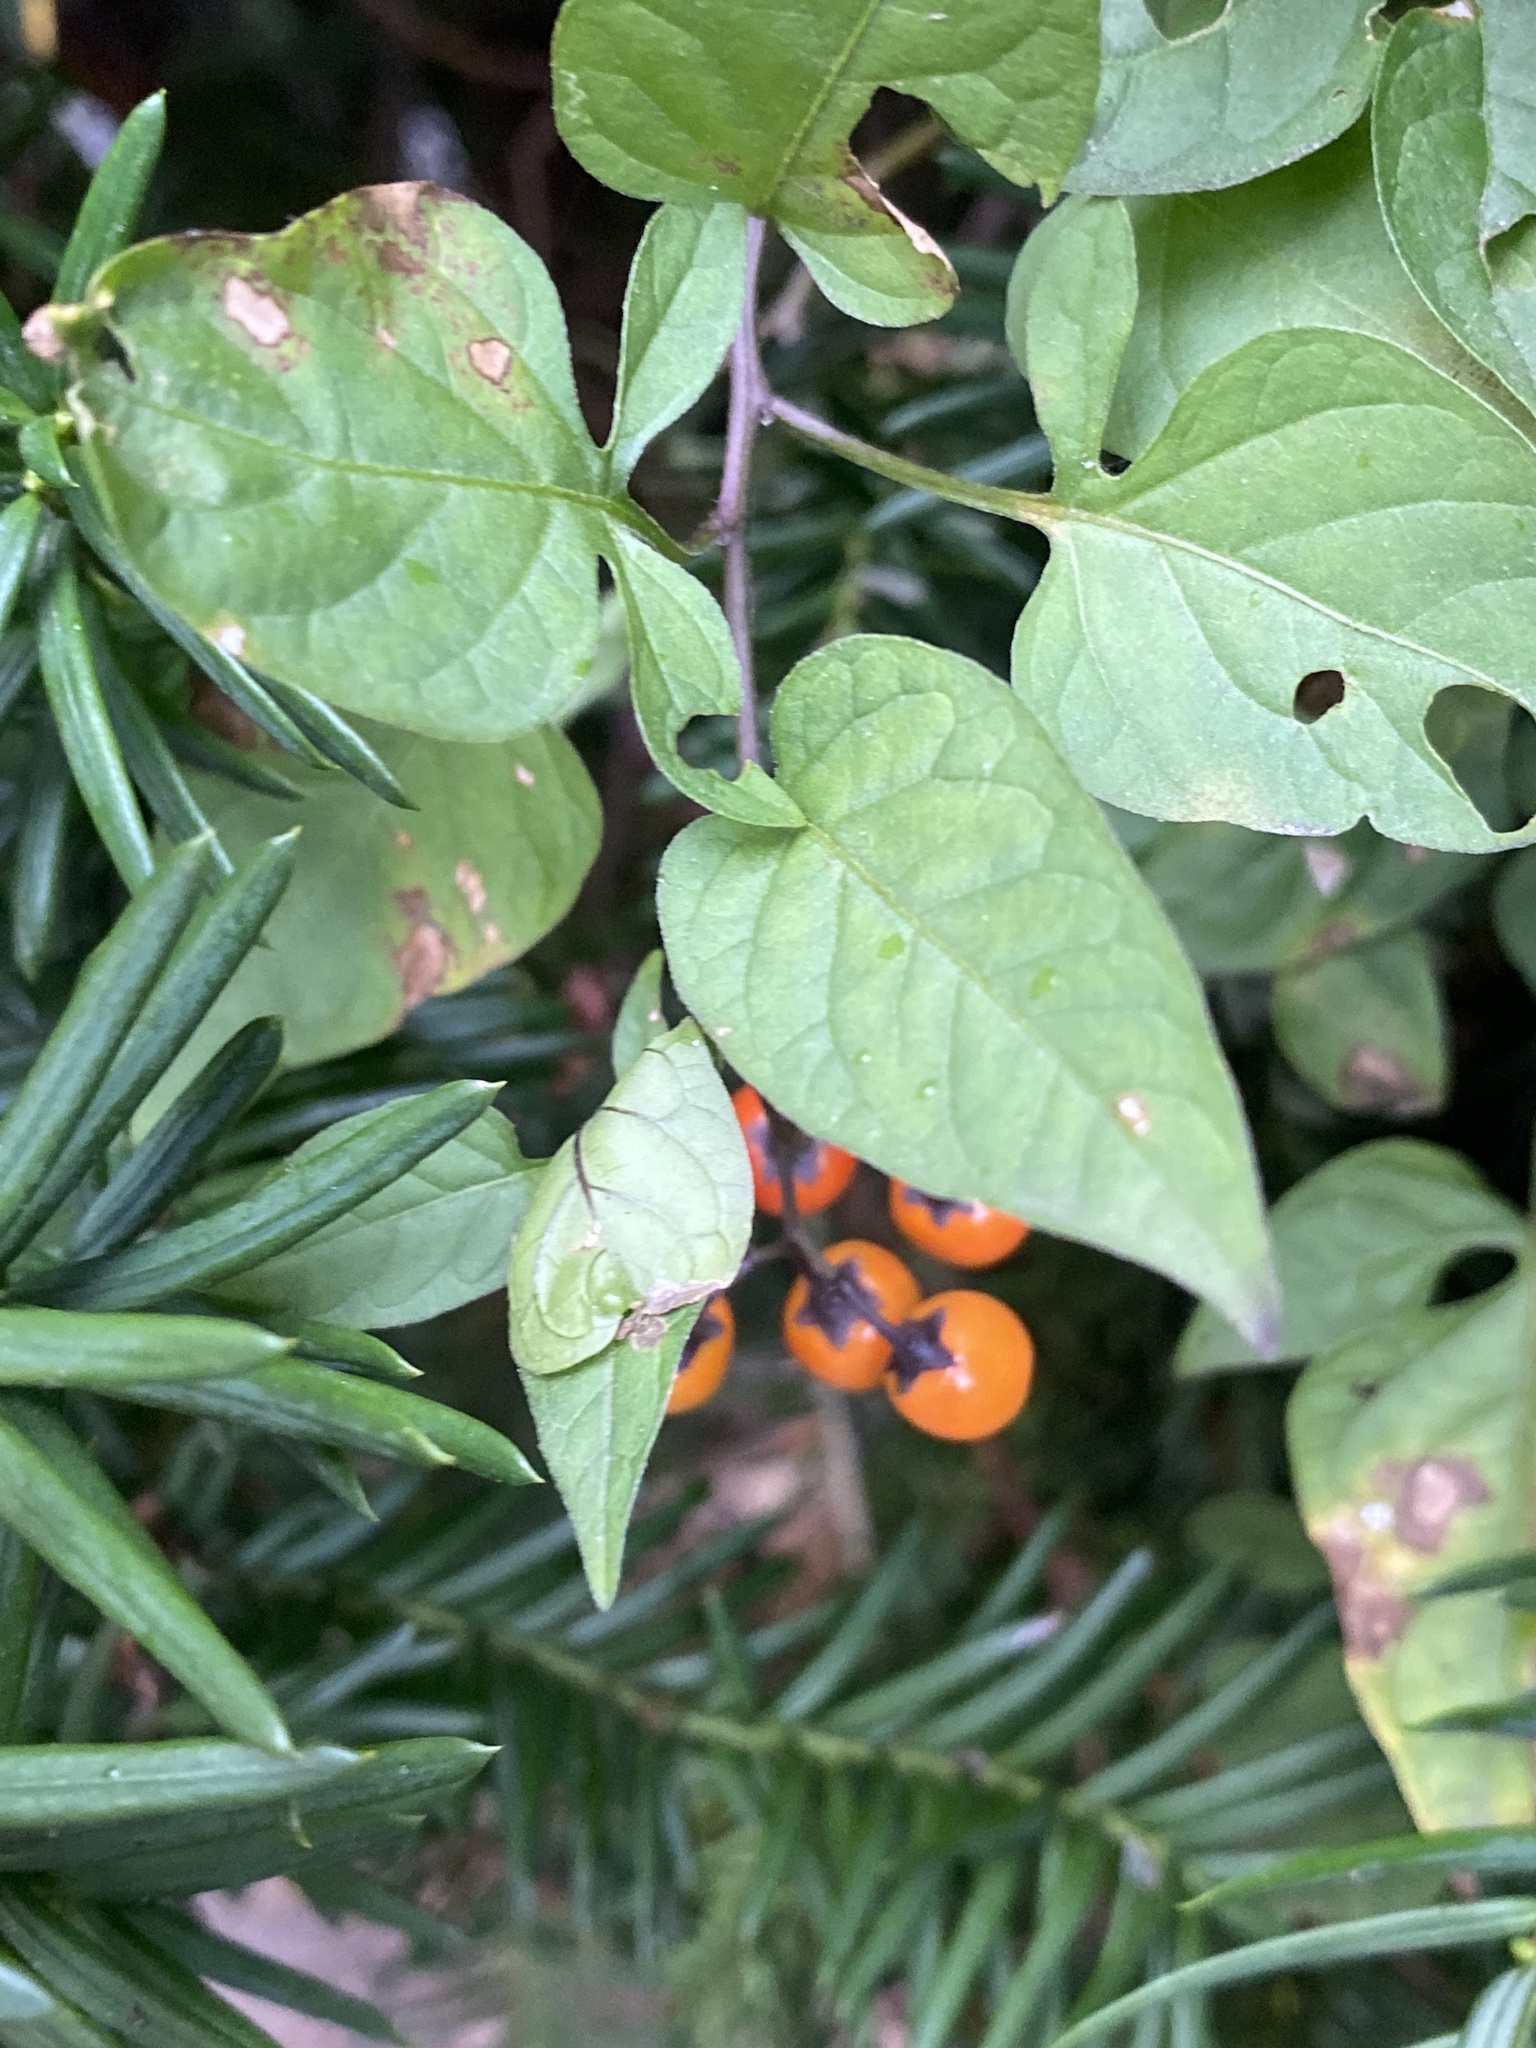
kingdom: Plantae
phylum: Tracheophyta
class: Magnoliopsida
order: Solanales
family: Solanaceae
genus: Solanum
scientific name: Solanum dulcamara
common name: Climbing nightshade
